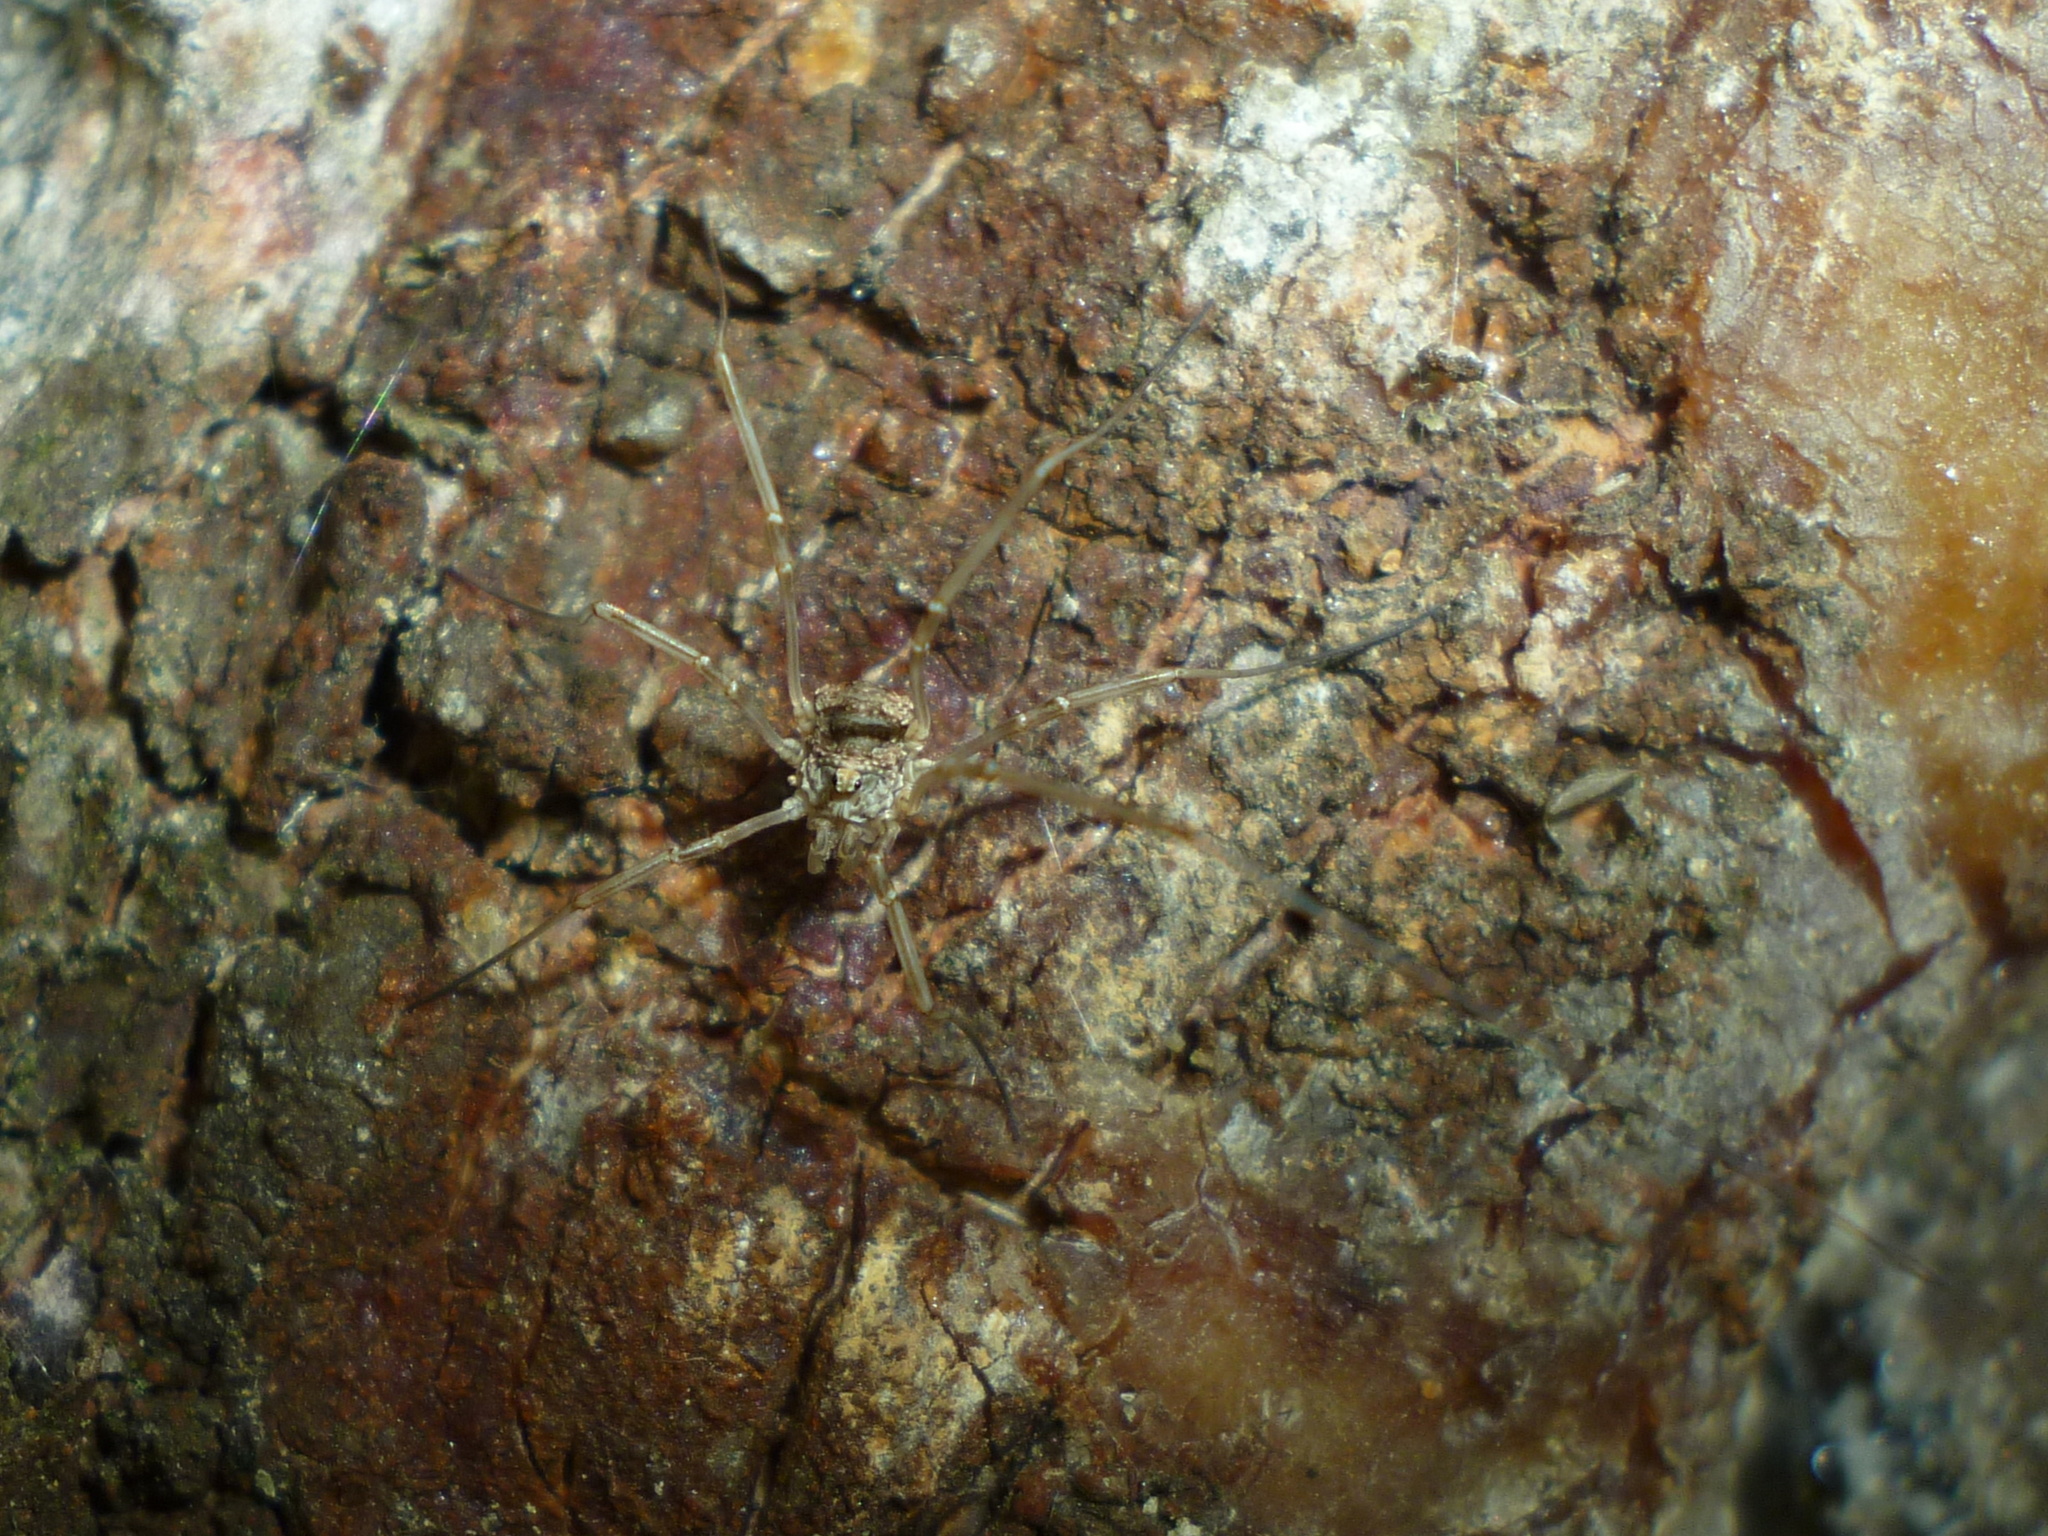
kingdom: Animalia
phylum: Arthropoda
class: Arachnida
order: Opiliones
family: Phalangiidae
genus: Phalangium
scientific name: Phalangium opilio
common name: Daddy longleg
